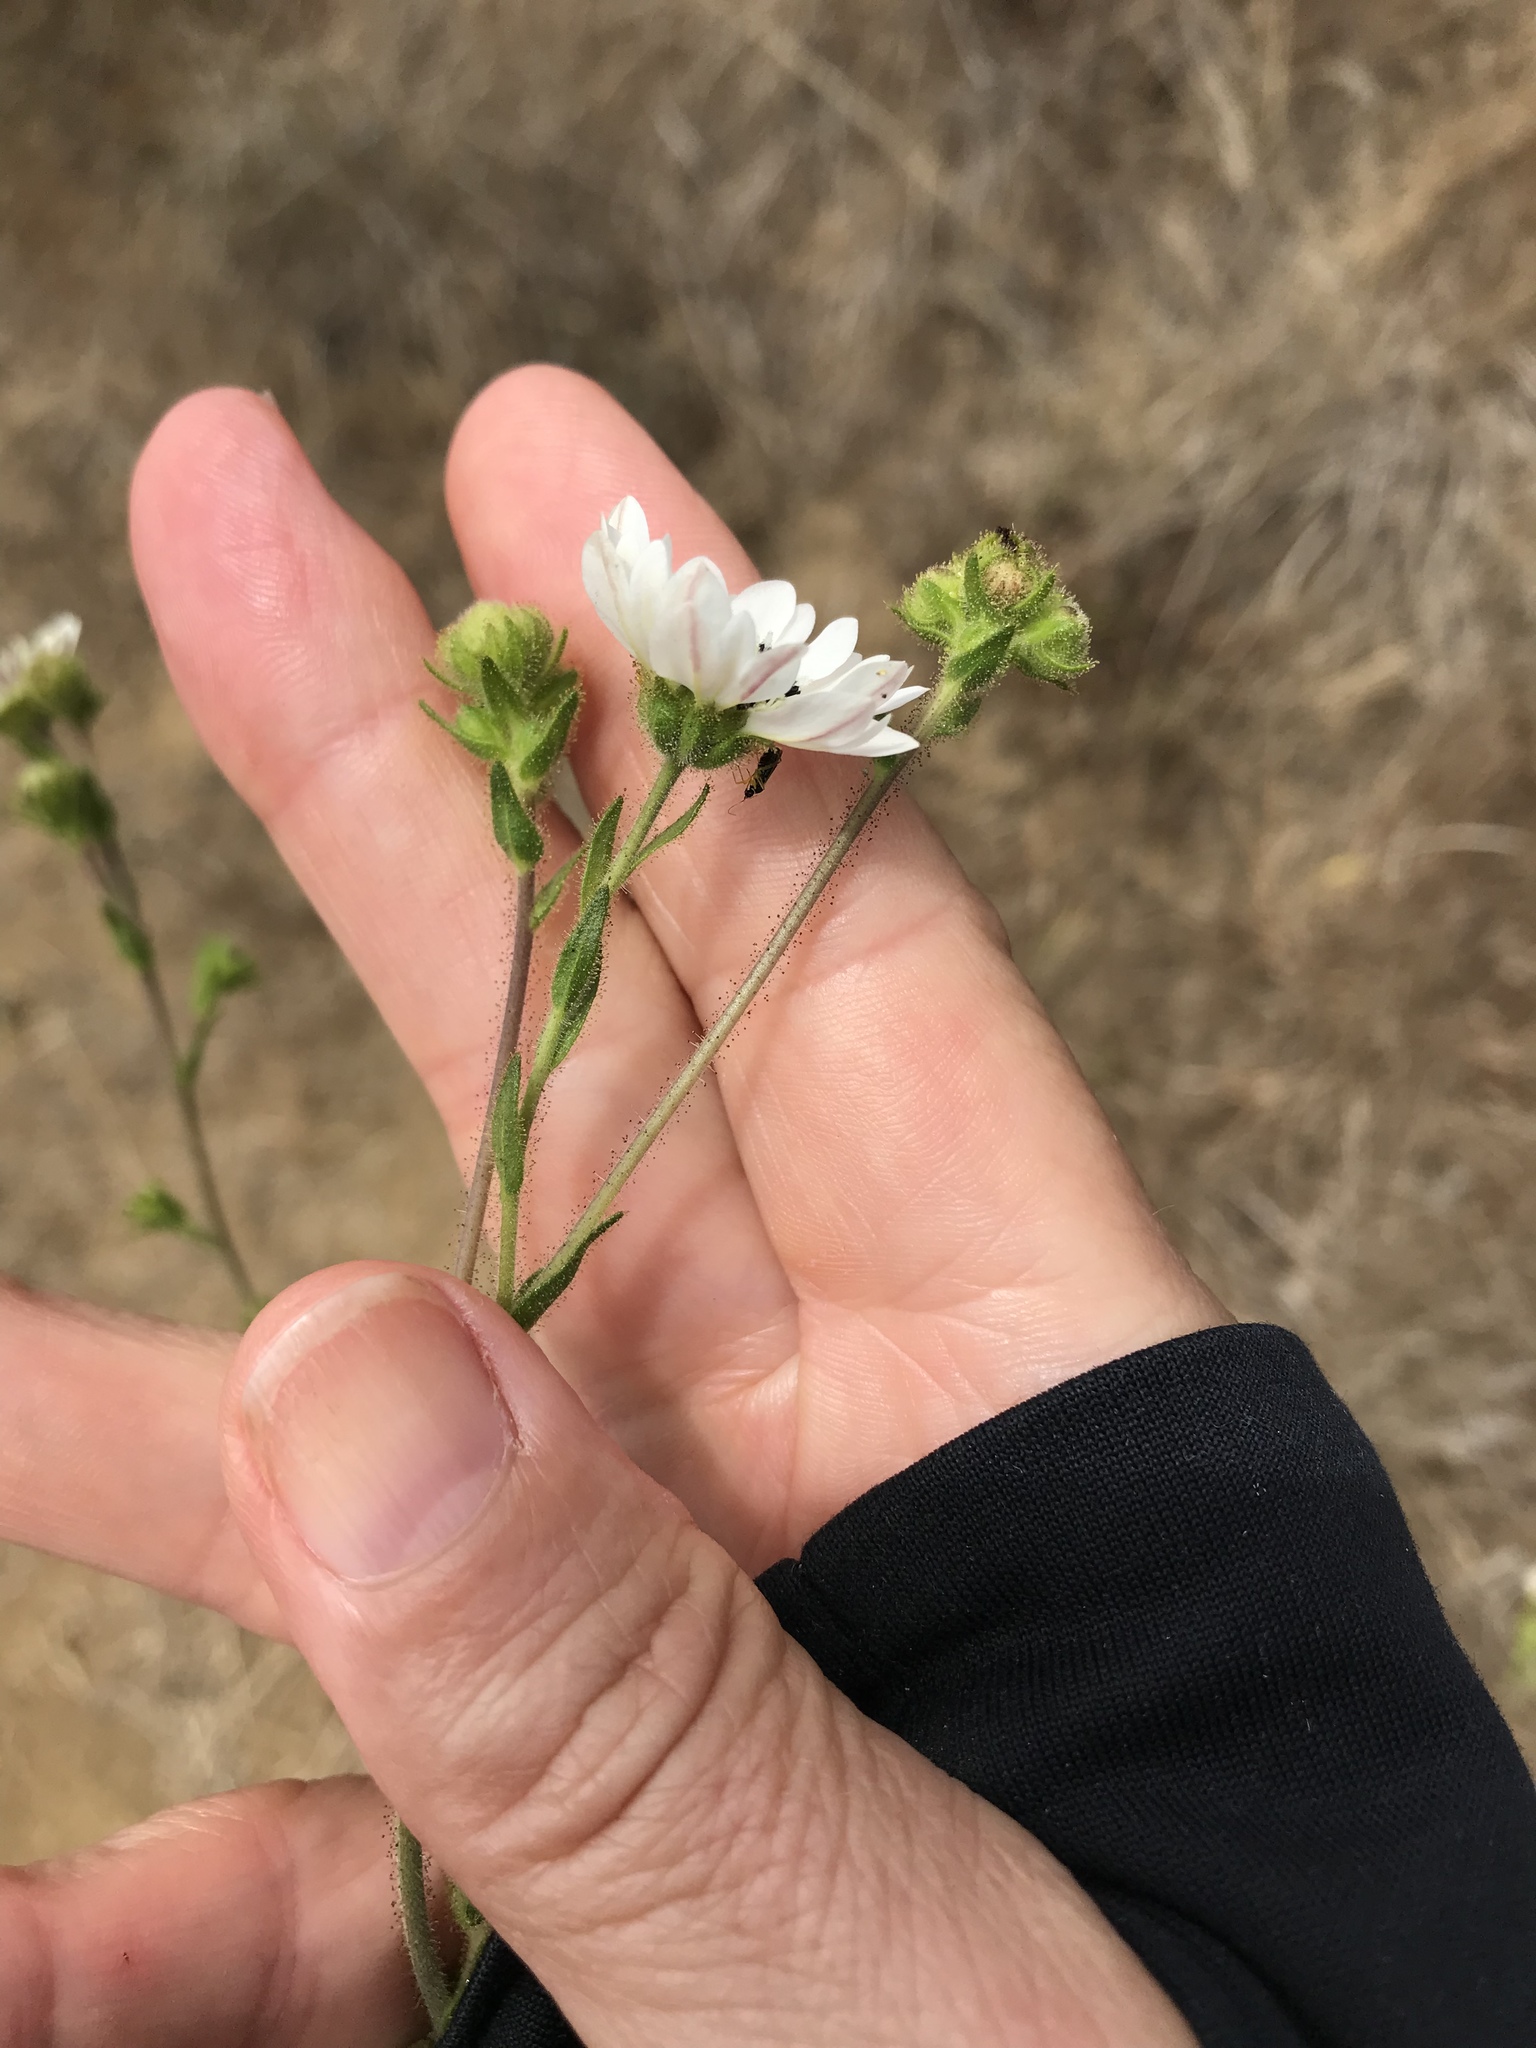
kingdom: Plantae
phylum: Tracheophyta
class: Magnoliopsida
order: Asterales
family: Asteraceae
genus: Hemizonia
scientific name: Hemizonia congesta
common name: Hayfield tarweed
